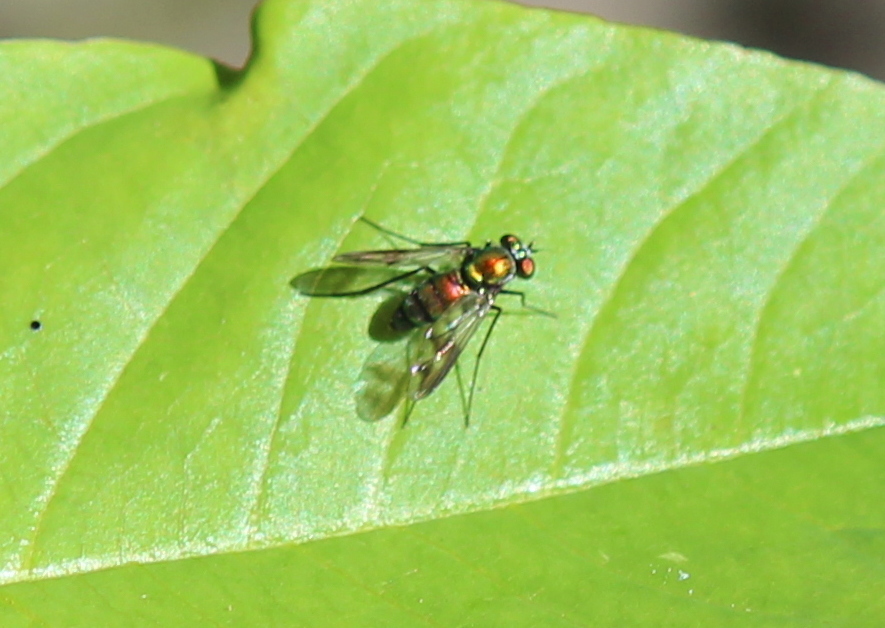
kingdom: Animalia
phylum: Arthropoda
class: Insecta
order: Diptera
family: Dolichopodidae
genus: Condylostylus
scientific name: Condylostylus patibulatus
